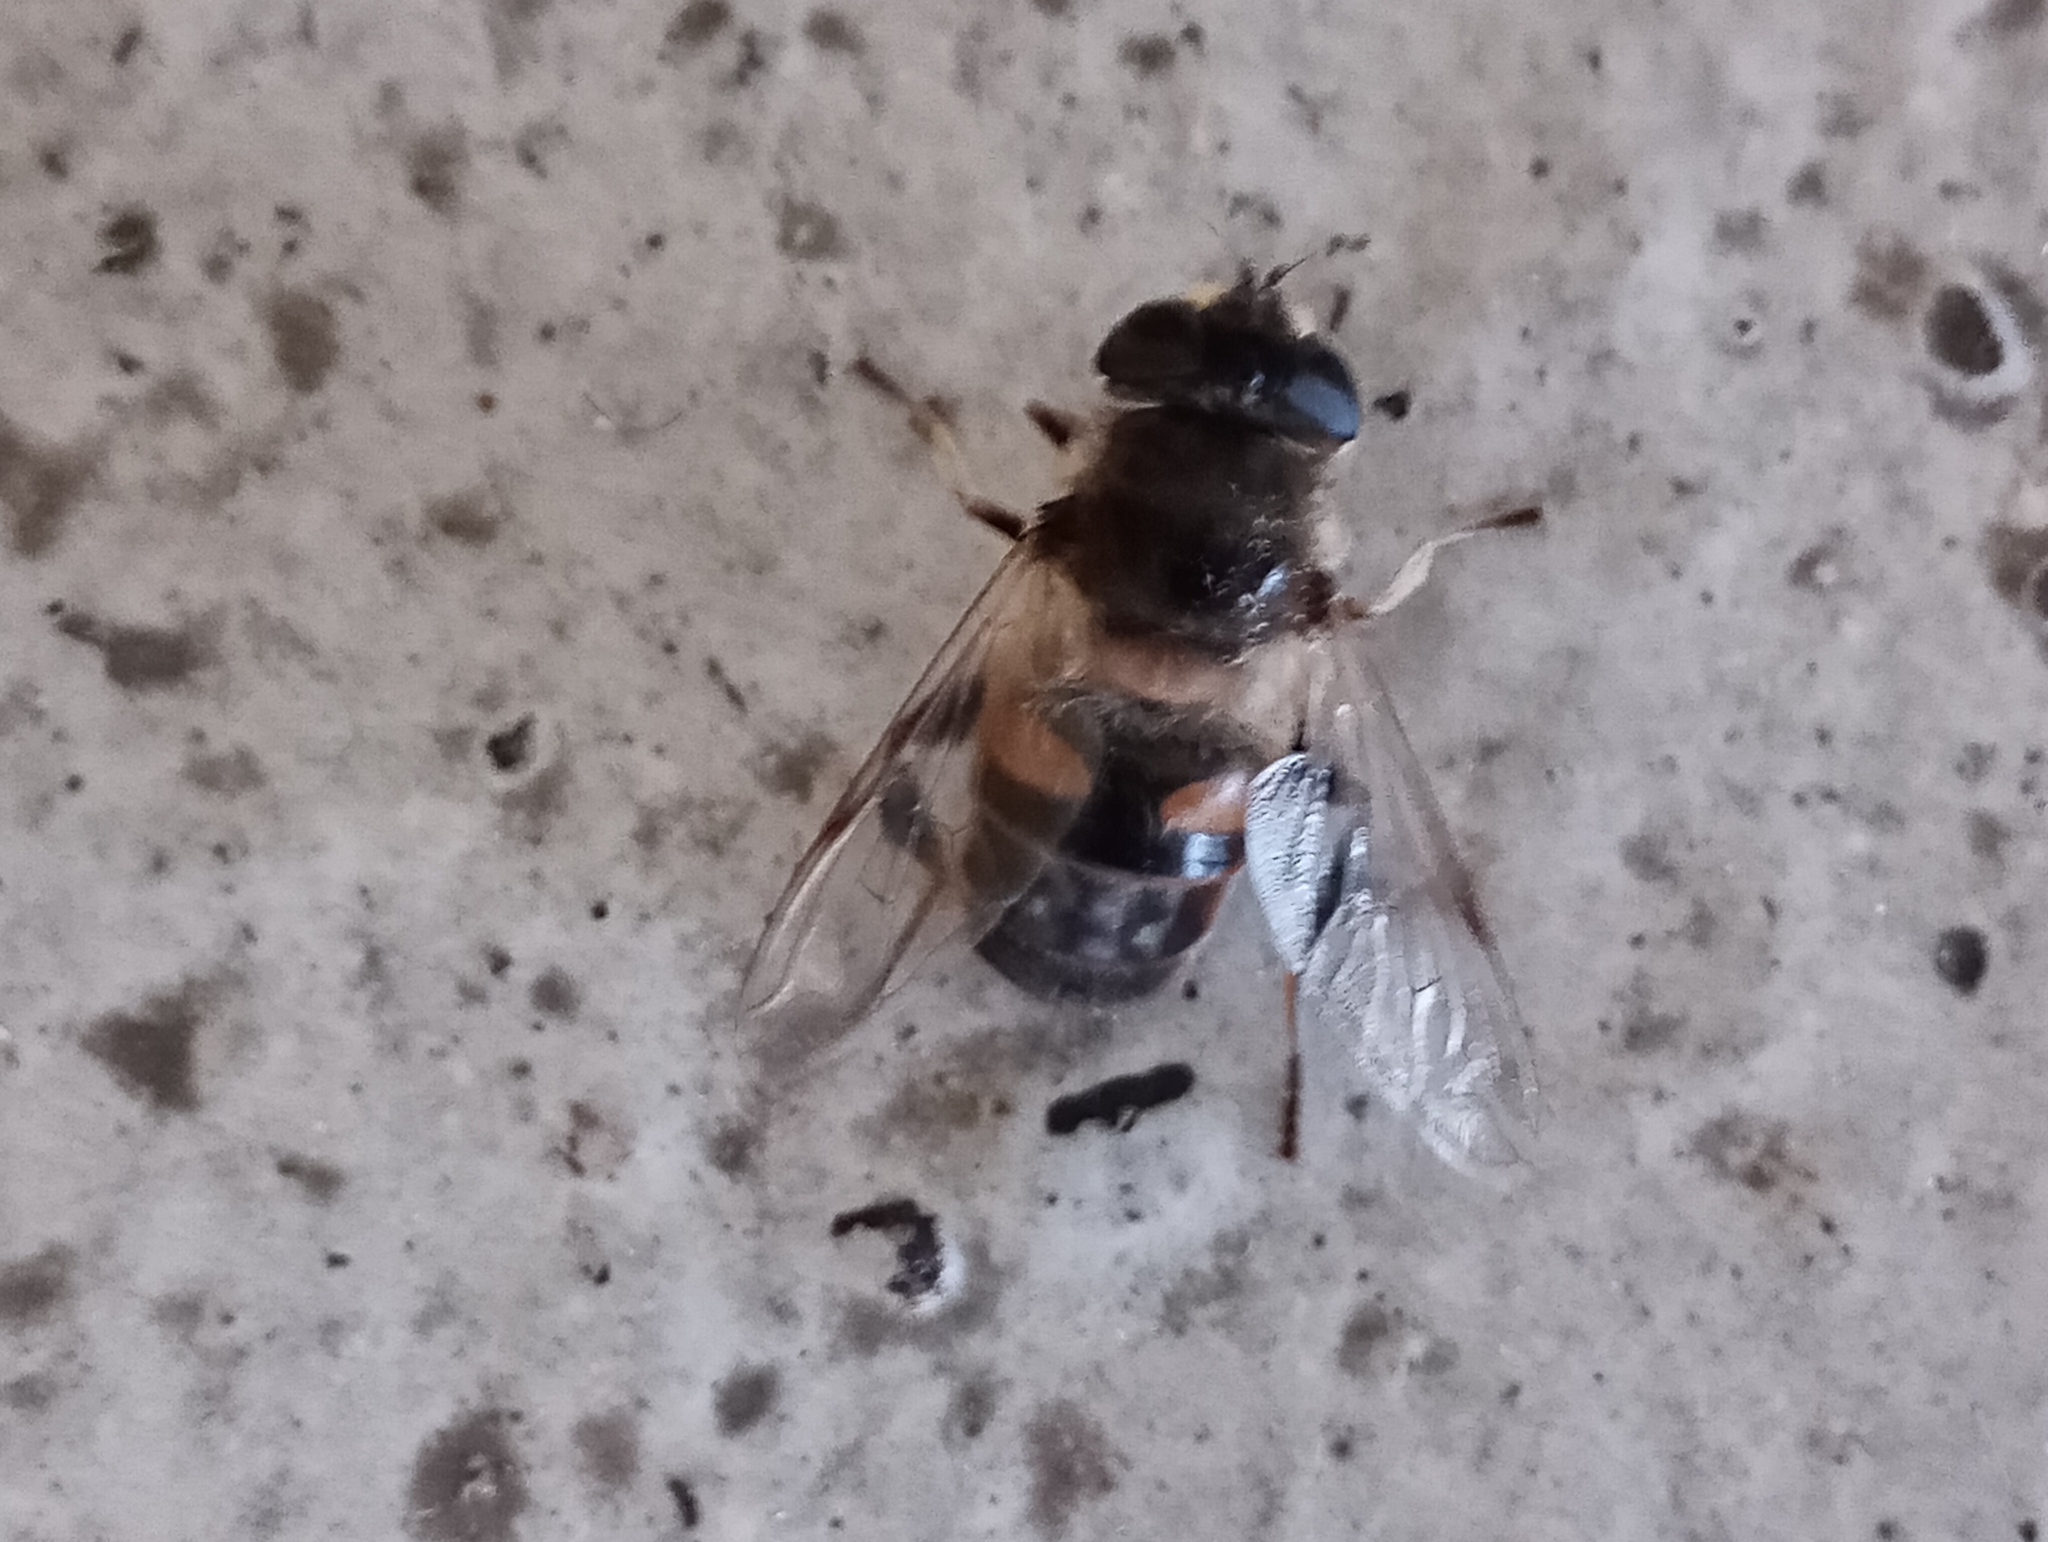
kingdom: Animalia
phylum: Arthropoda
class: Insecta
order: Diptera
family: Syrphidae
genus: Eristalis
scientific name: Eristalis tenax
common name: Drone fly
